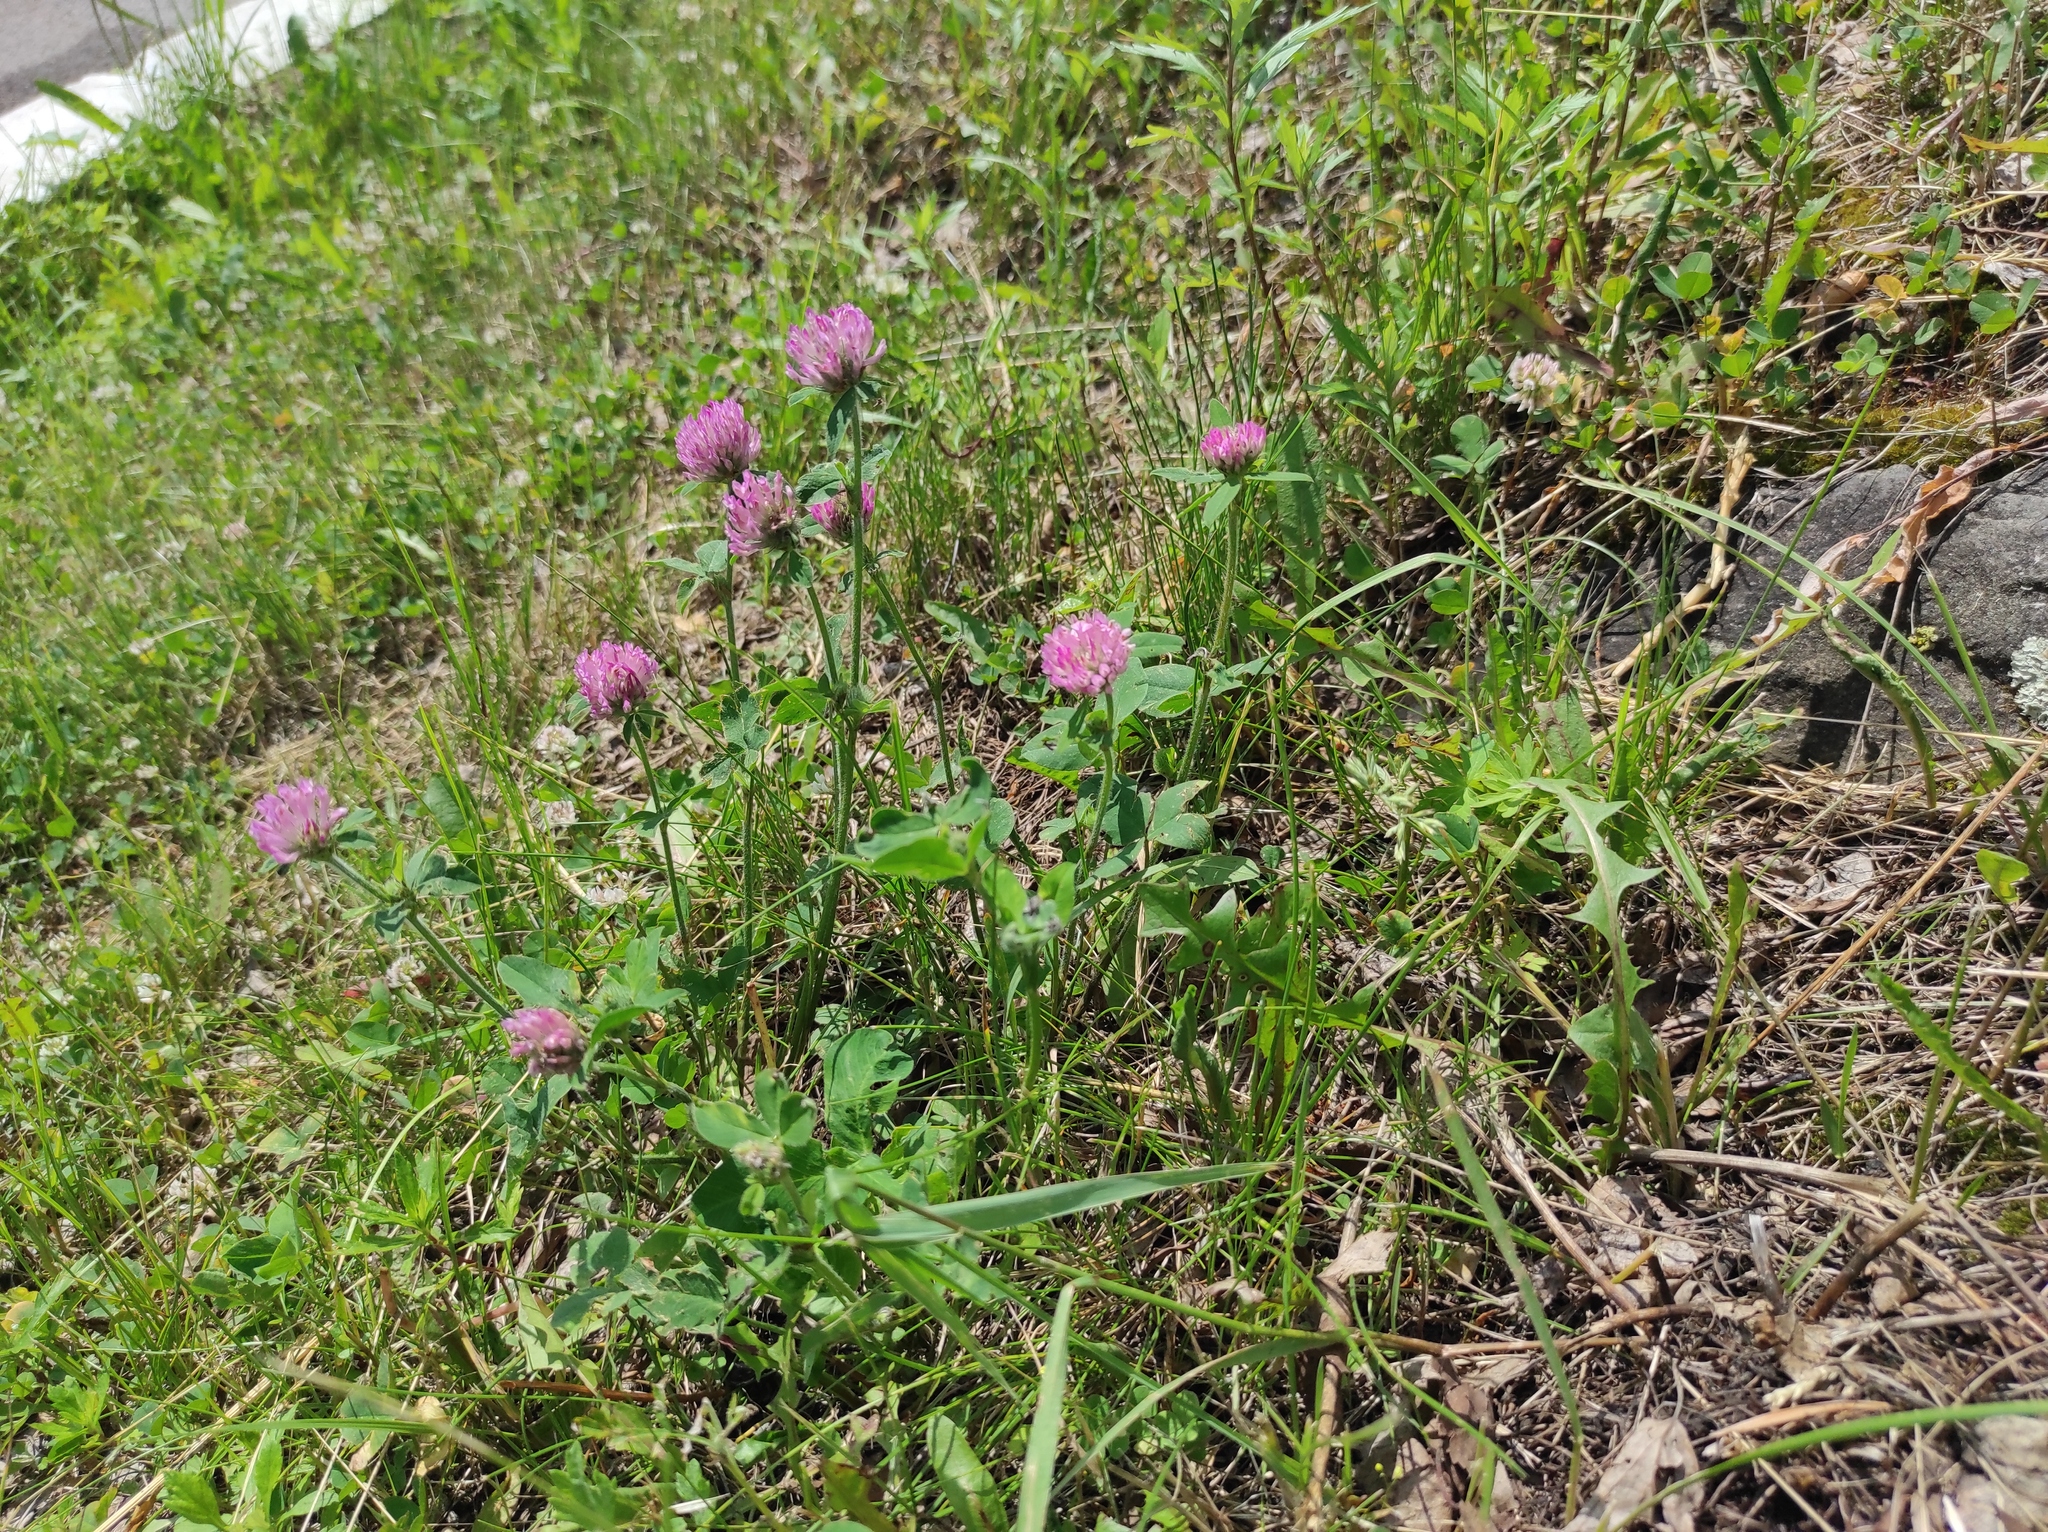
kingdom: Plantae
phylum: Tracheophyta
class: Magnoliopsida
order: Fabales
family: Fabaceae
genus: Trifolium
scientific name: Trifolium pratense
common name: Red clover
